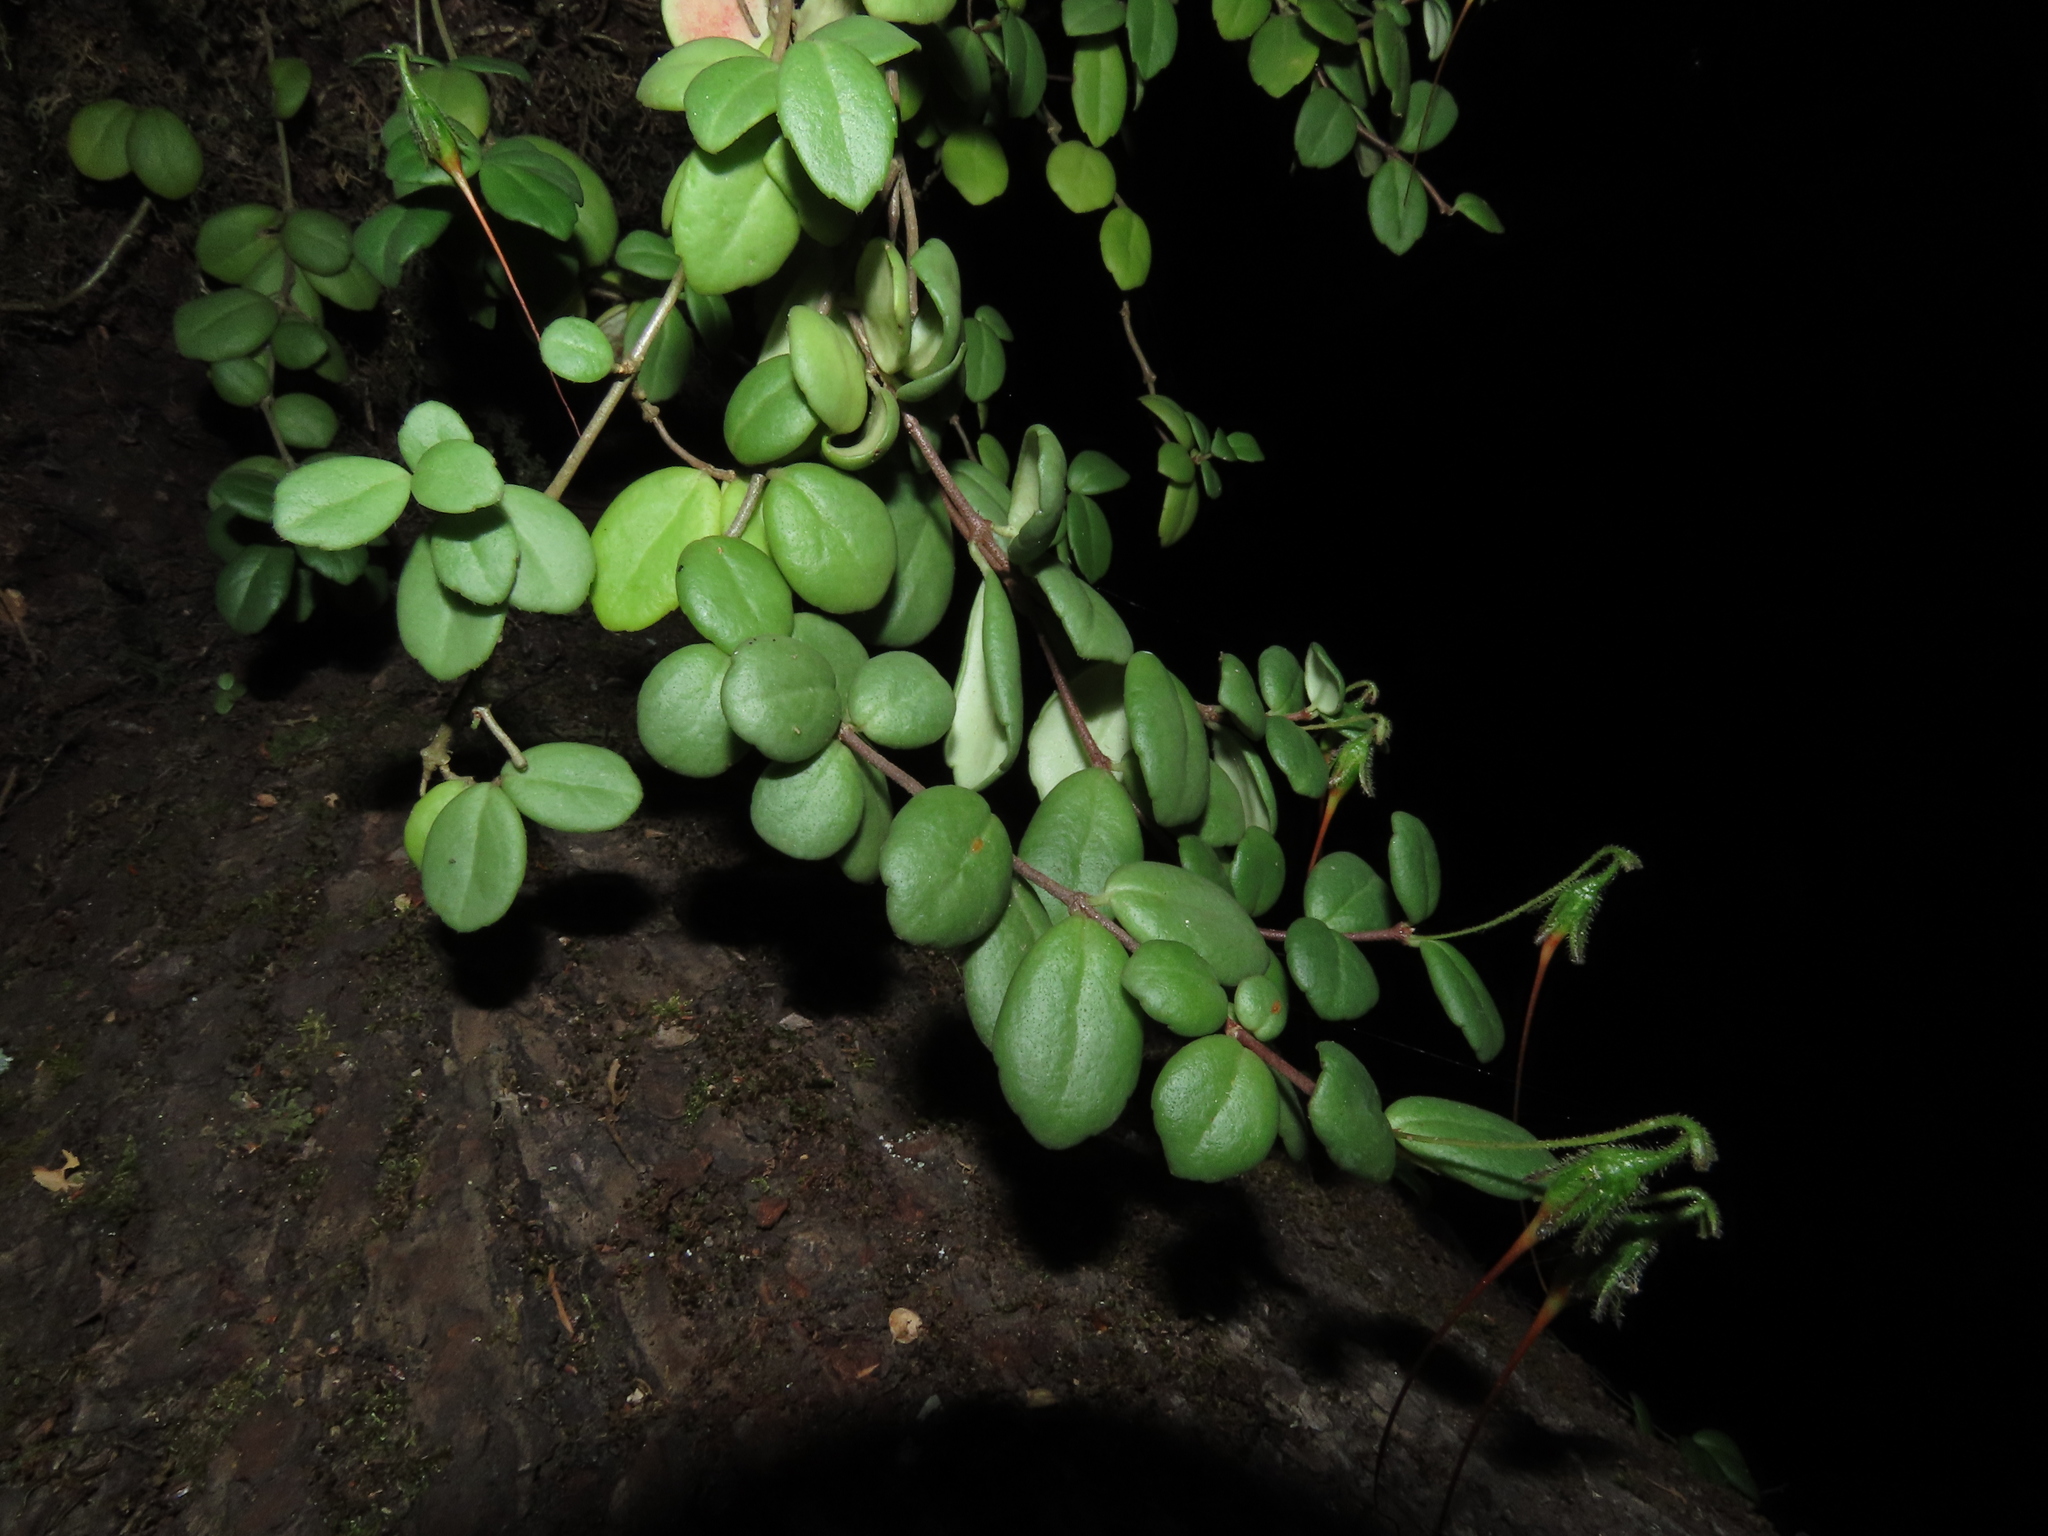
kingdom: Plantae
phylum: Tracheophyta
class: Magnoliopsida
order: Lamiales
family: Gesneriaceae
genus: Sarmienta
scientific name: Sarmienta scandens
